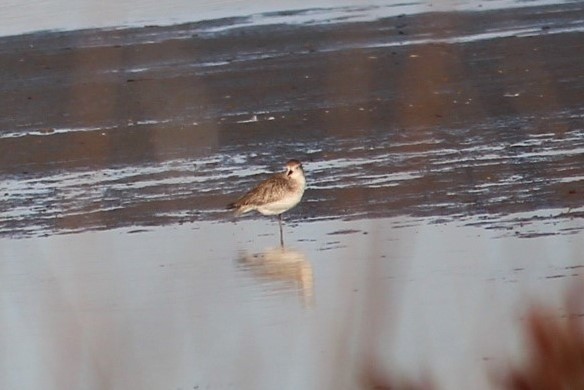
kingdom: Animalia
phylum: Chordata
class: Aves
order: Charadriiformes
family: Charadriidae
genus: Pluvialis
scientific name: Pluvialis squatarola
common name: Grey plover
